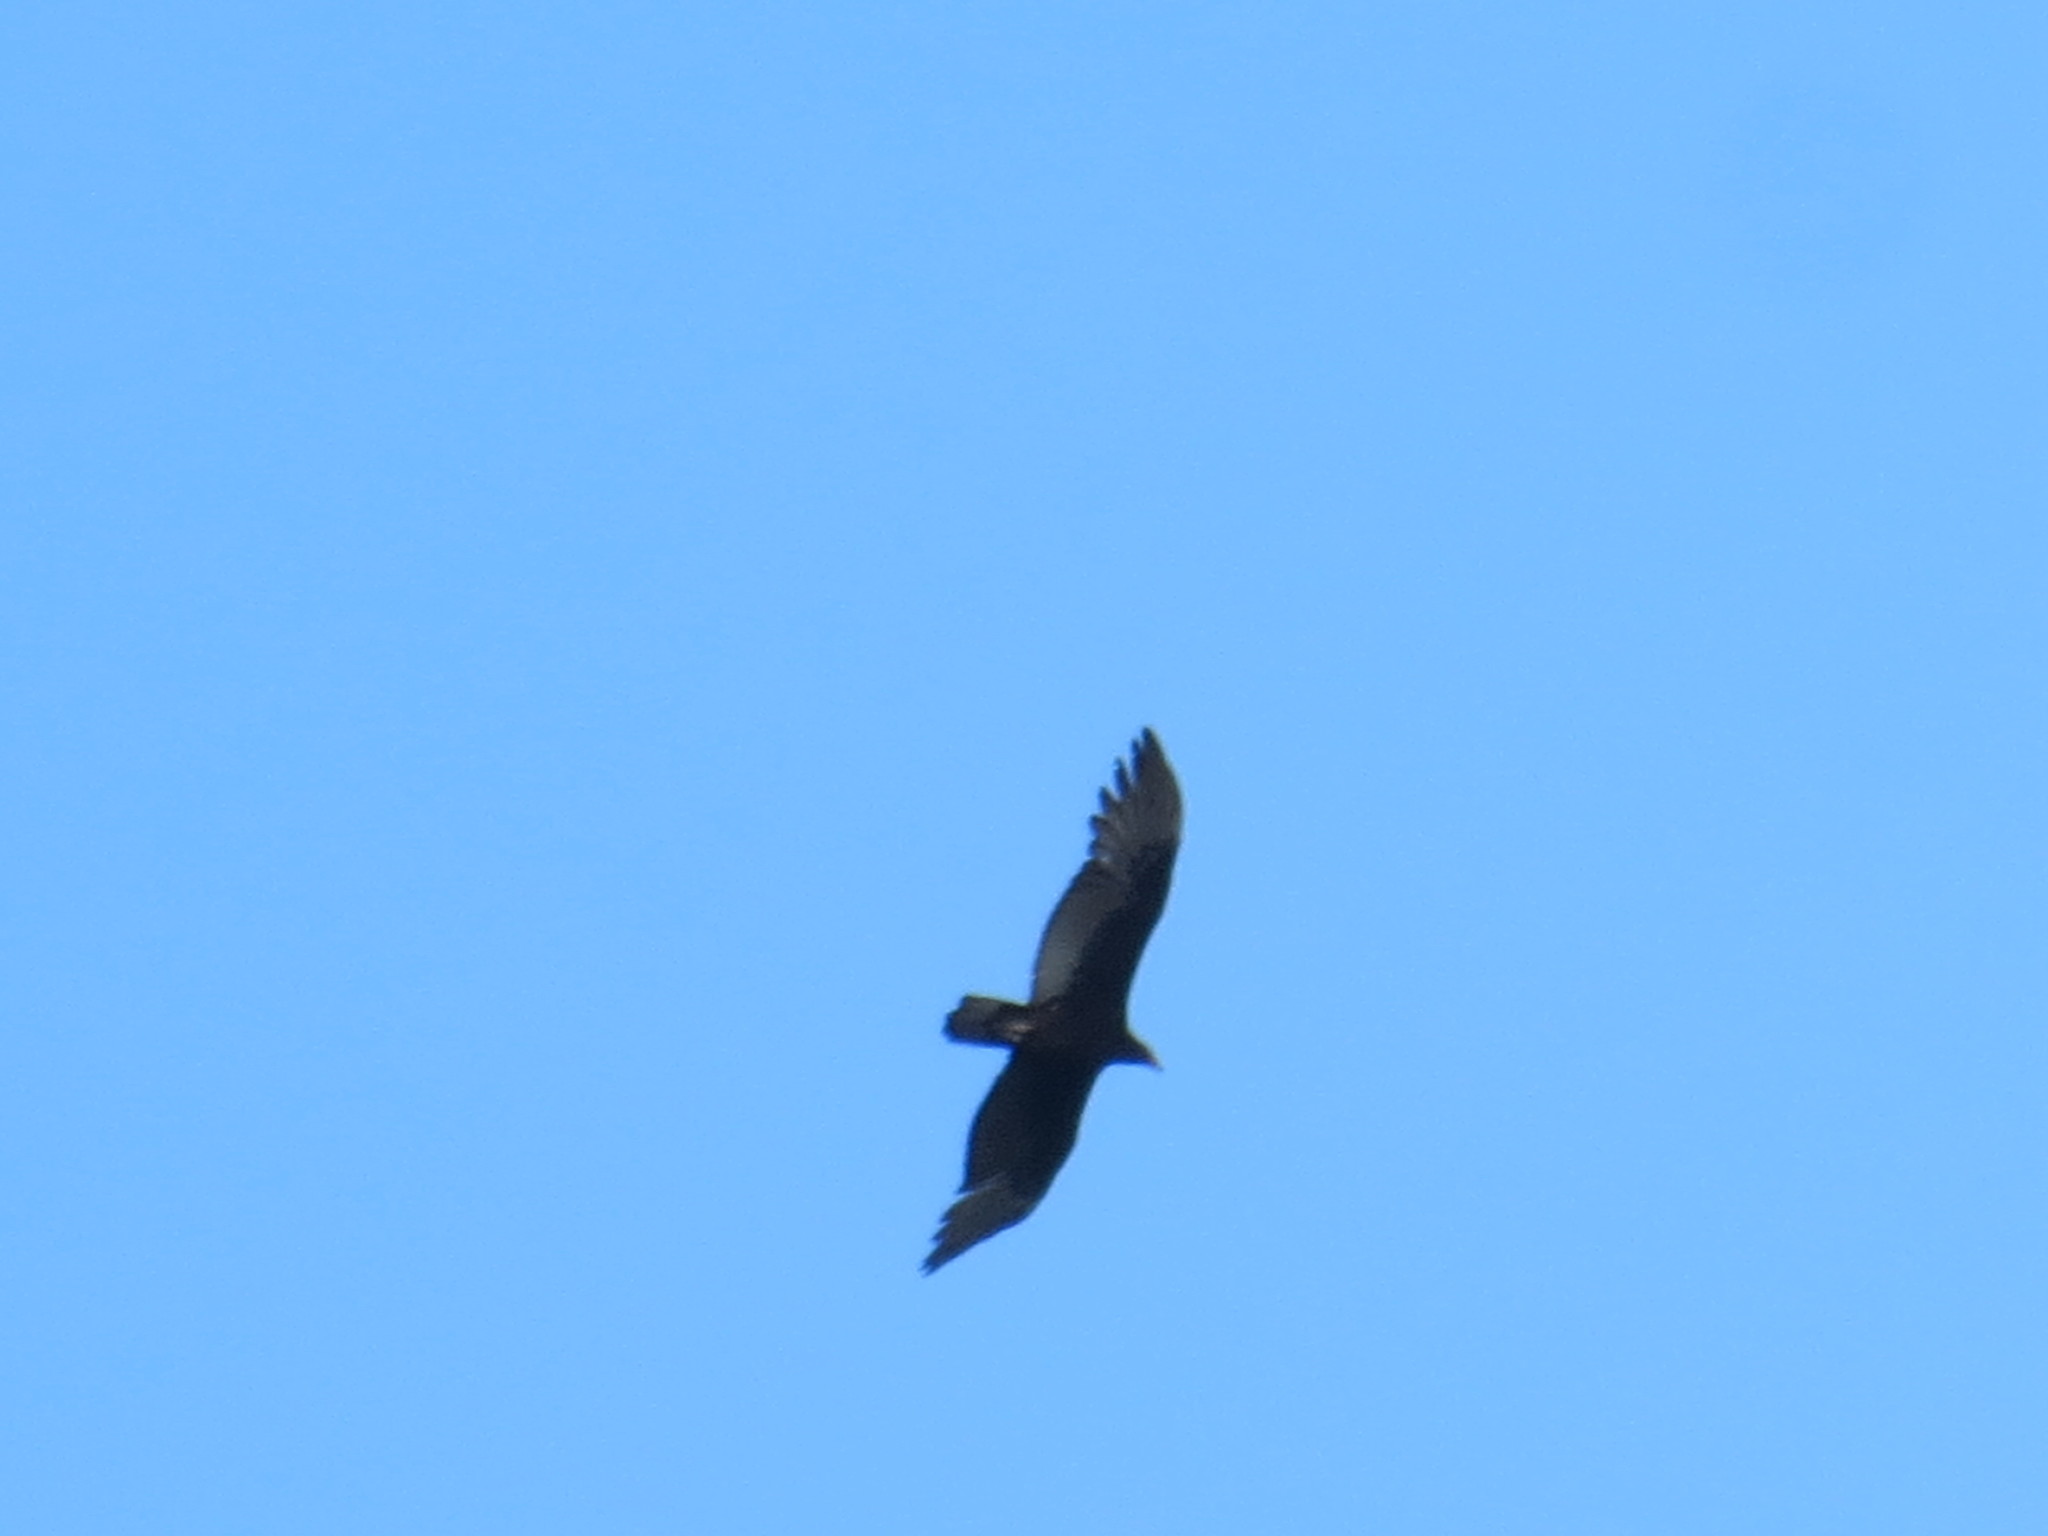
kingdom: Animalia
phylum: Chordata
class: Aves
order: Accipitriformes
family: Cathartidae
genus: Cathartes
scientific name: Cathartes aura
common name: Turkey vulture
